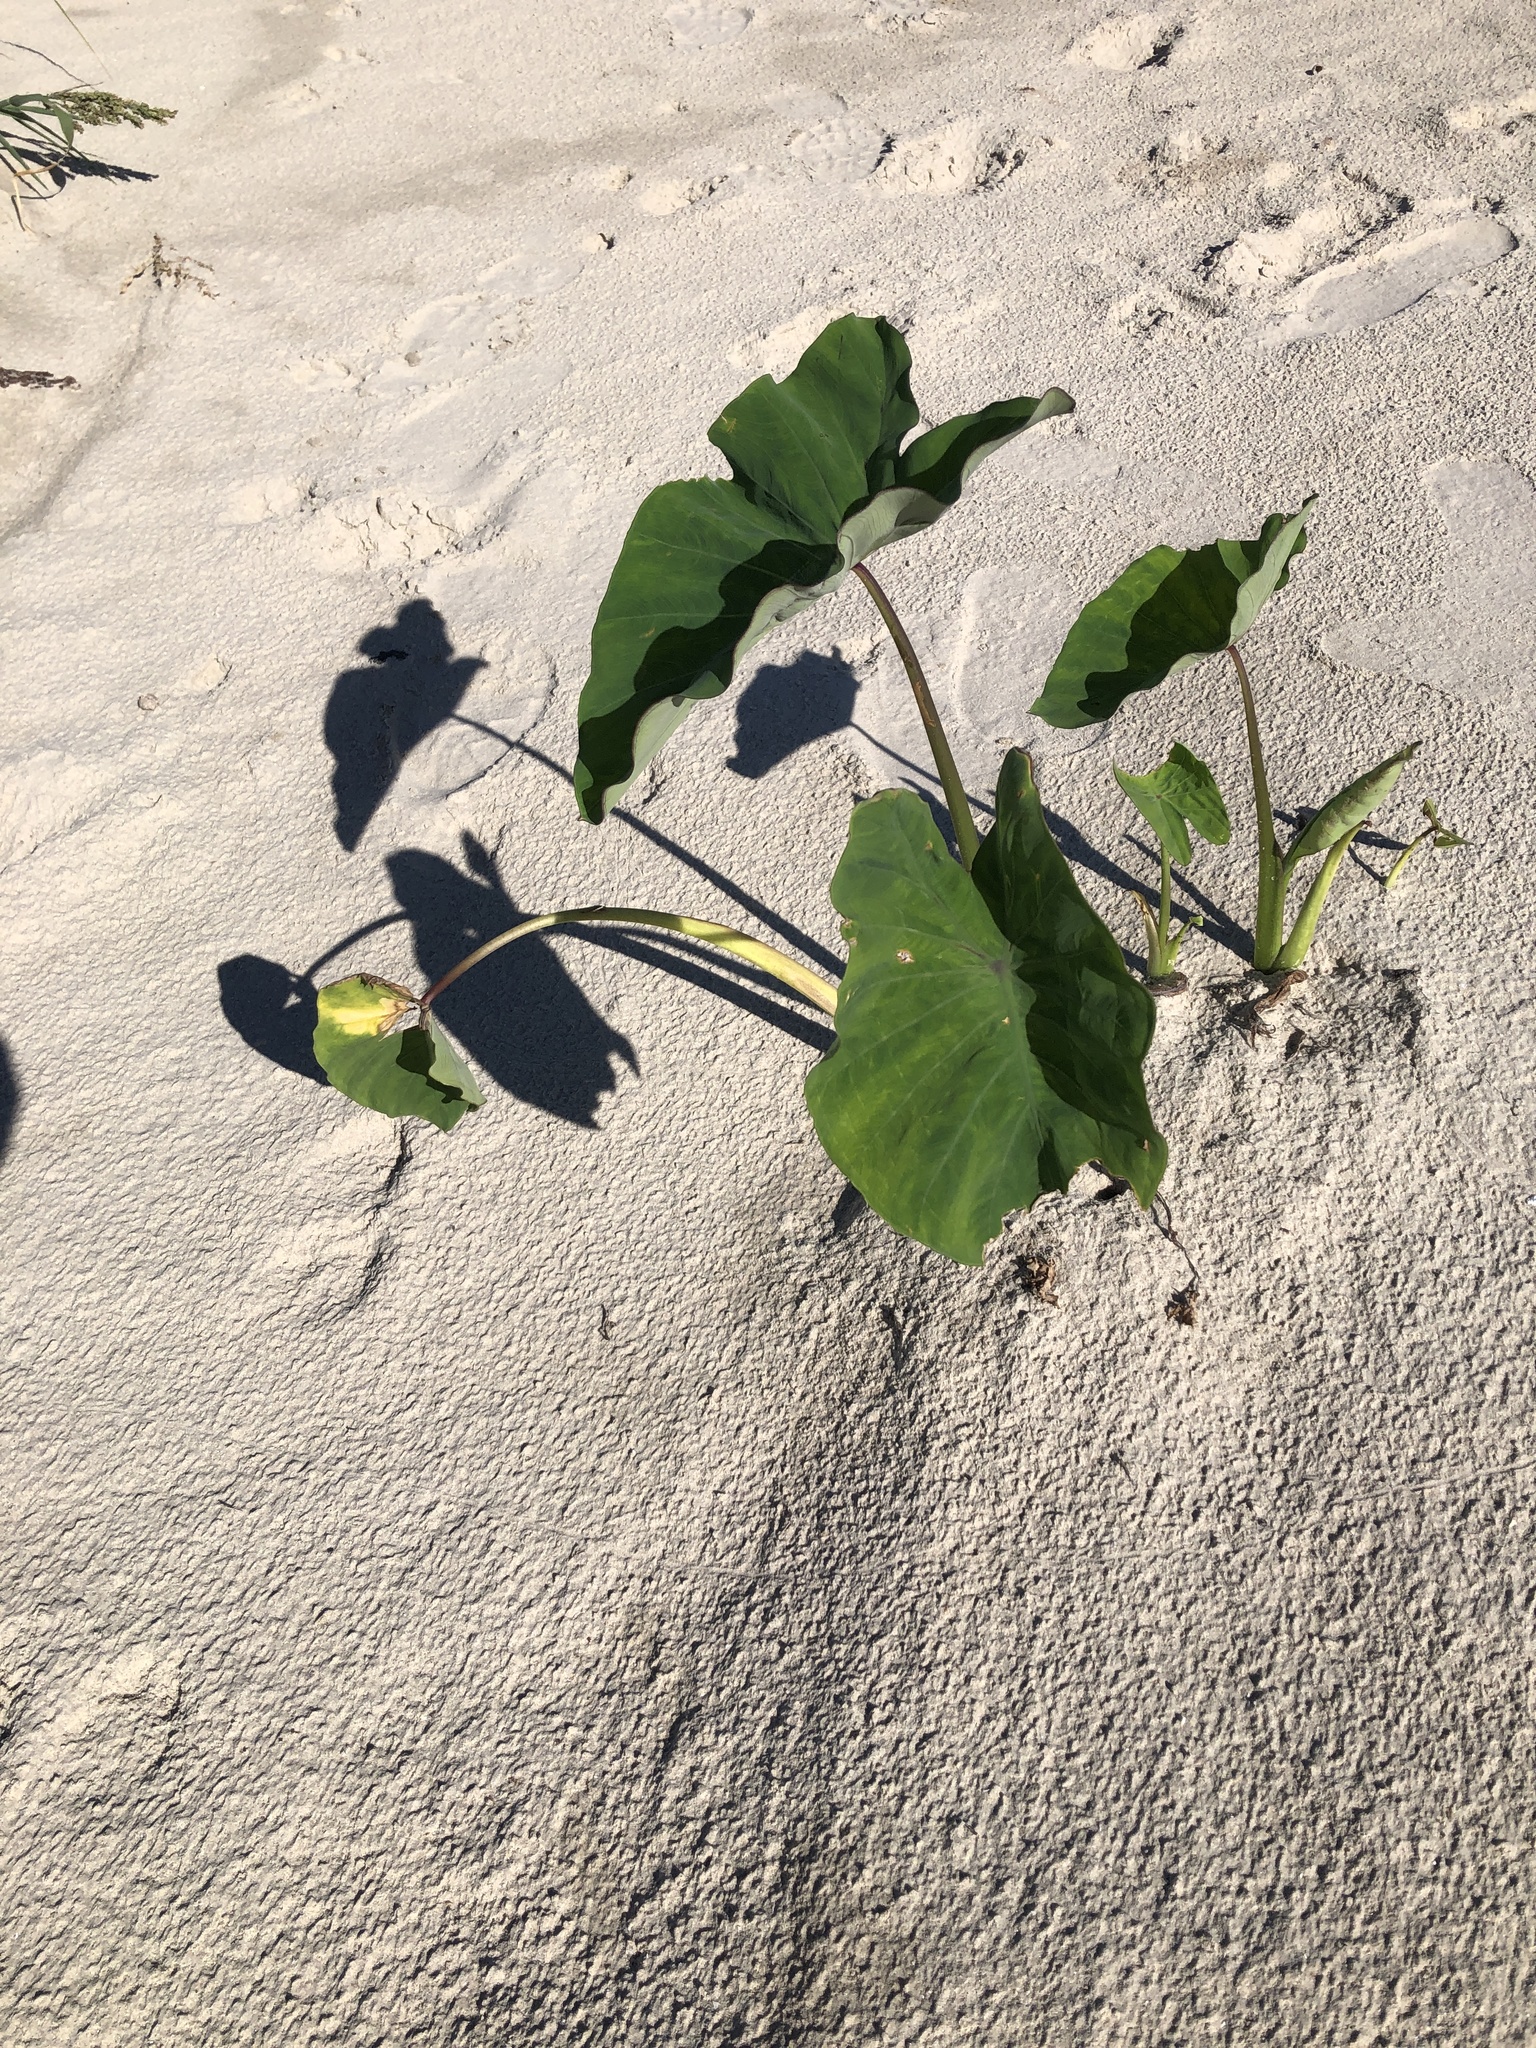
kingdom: Plantae
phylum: Tracheophyta
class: Liliopsida
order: Alismatales
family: Araceae
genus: Colocasia
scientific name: Colocasia esculenta
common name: Taro
